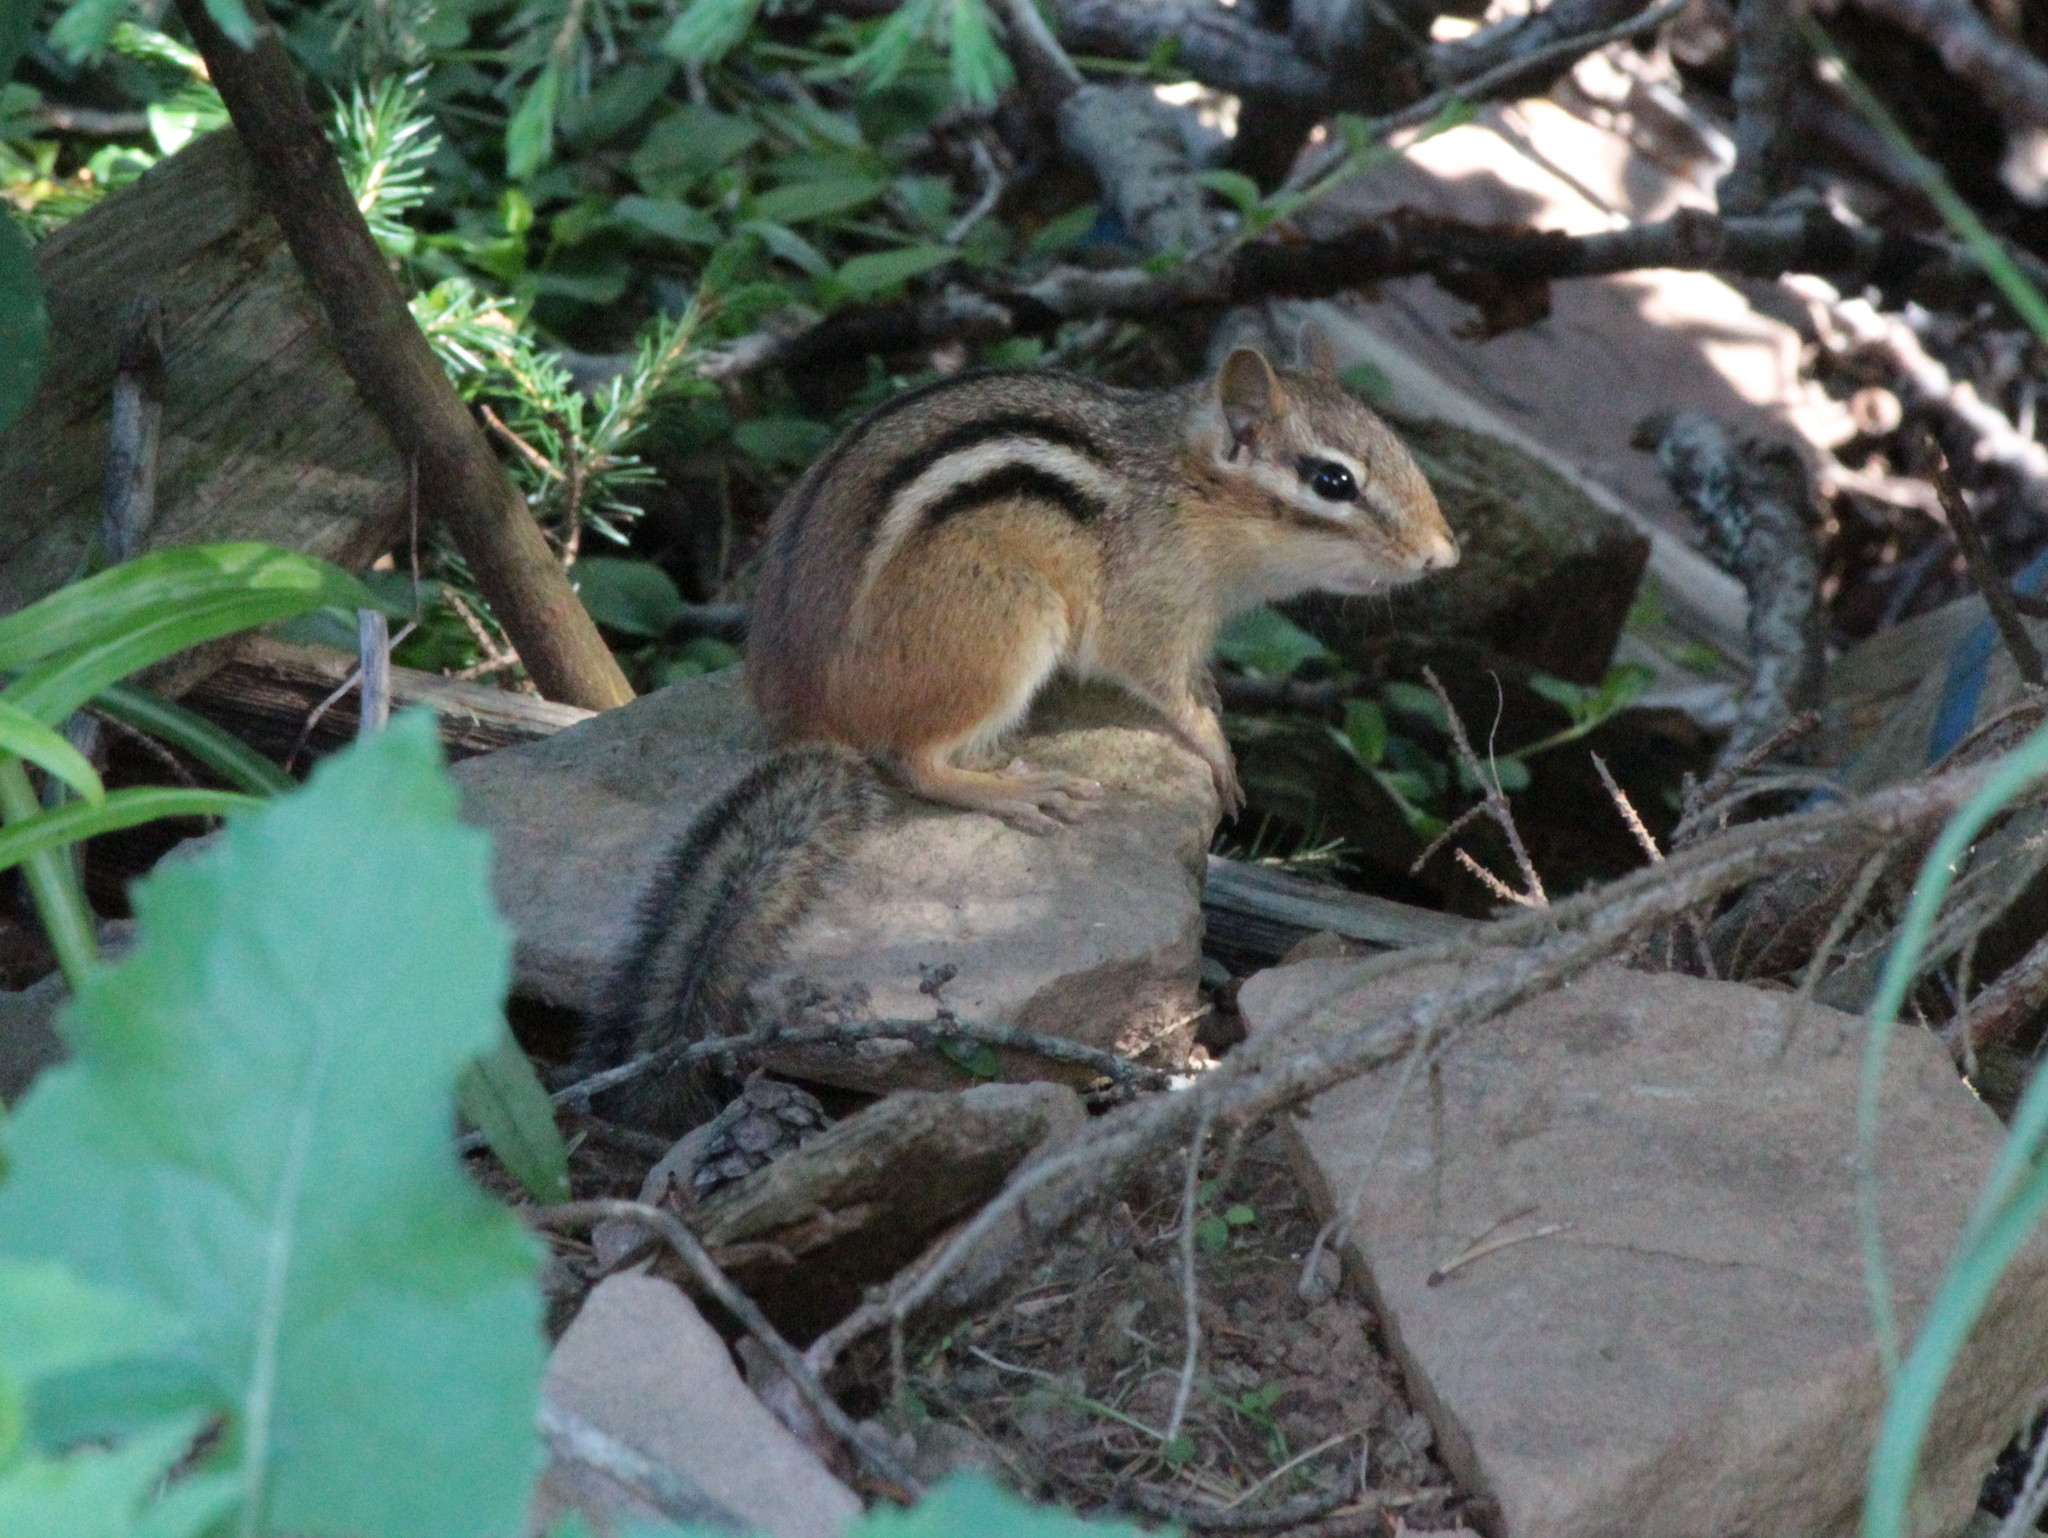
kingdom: Animalia
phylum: Chordata
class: Mammalia
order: Rodentia
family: Sciuridae
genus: Tamias
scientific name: Tamias striatus
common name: Eastern chipmunk
